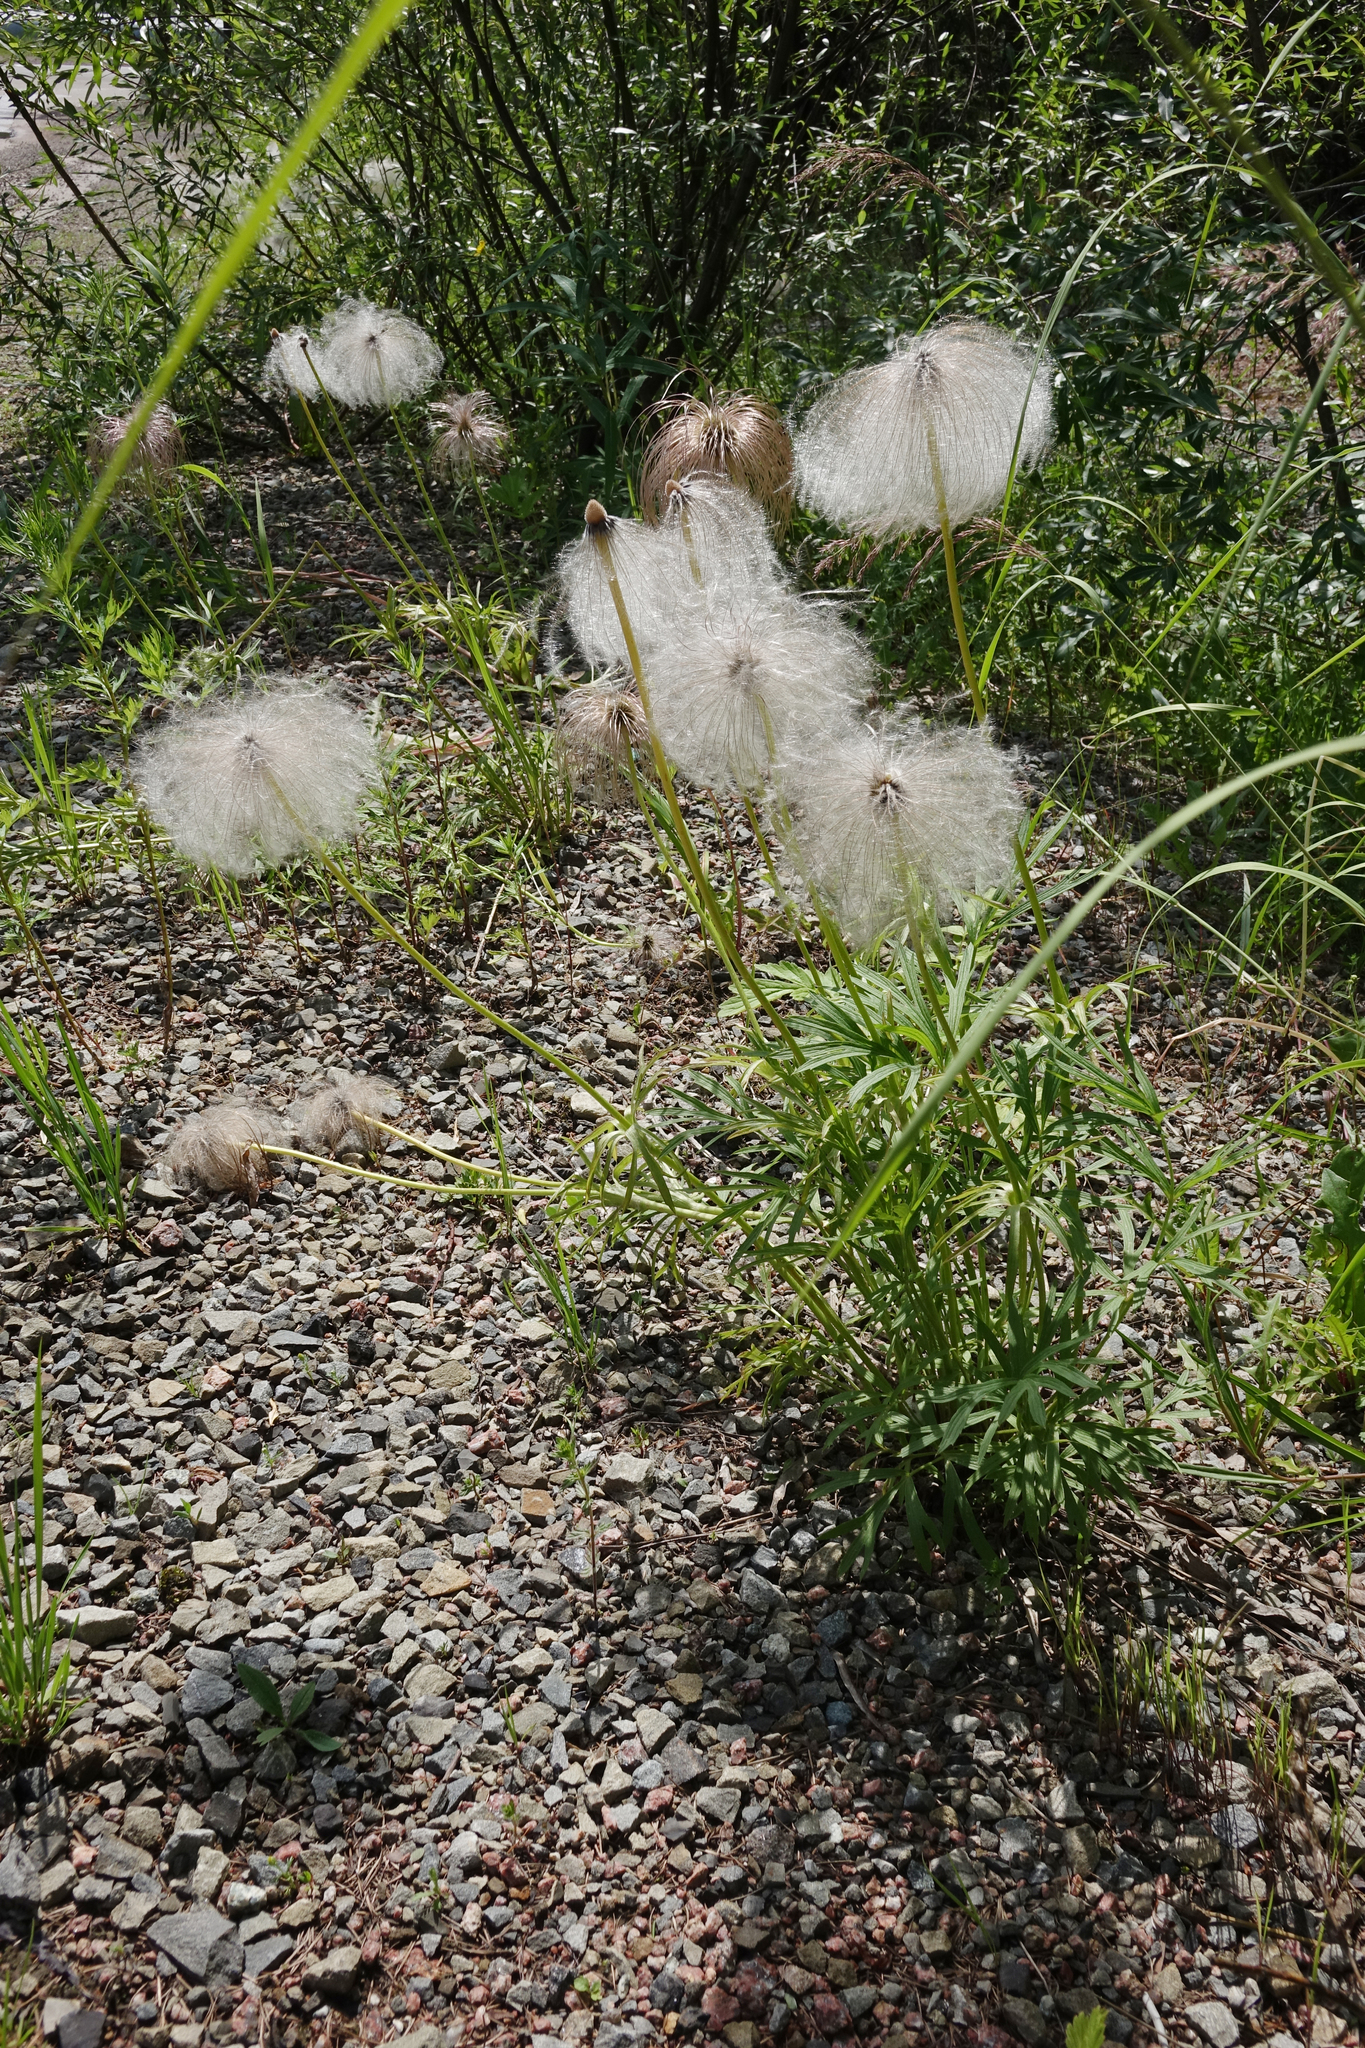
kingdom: Plantae
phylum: Tracheophyta
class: Magnoliopsida
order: Ranunculales
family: Ranunculaceae
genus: Pulsatilla
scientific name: Pulsatilla dahurica
